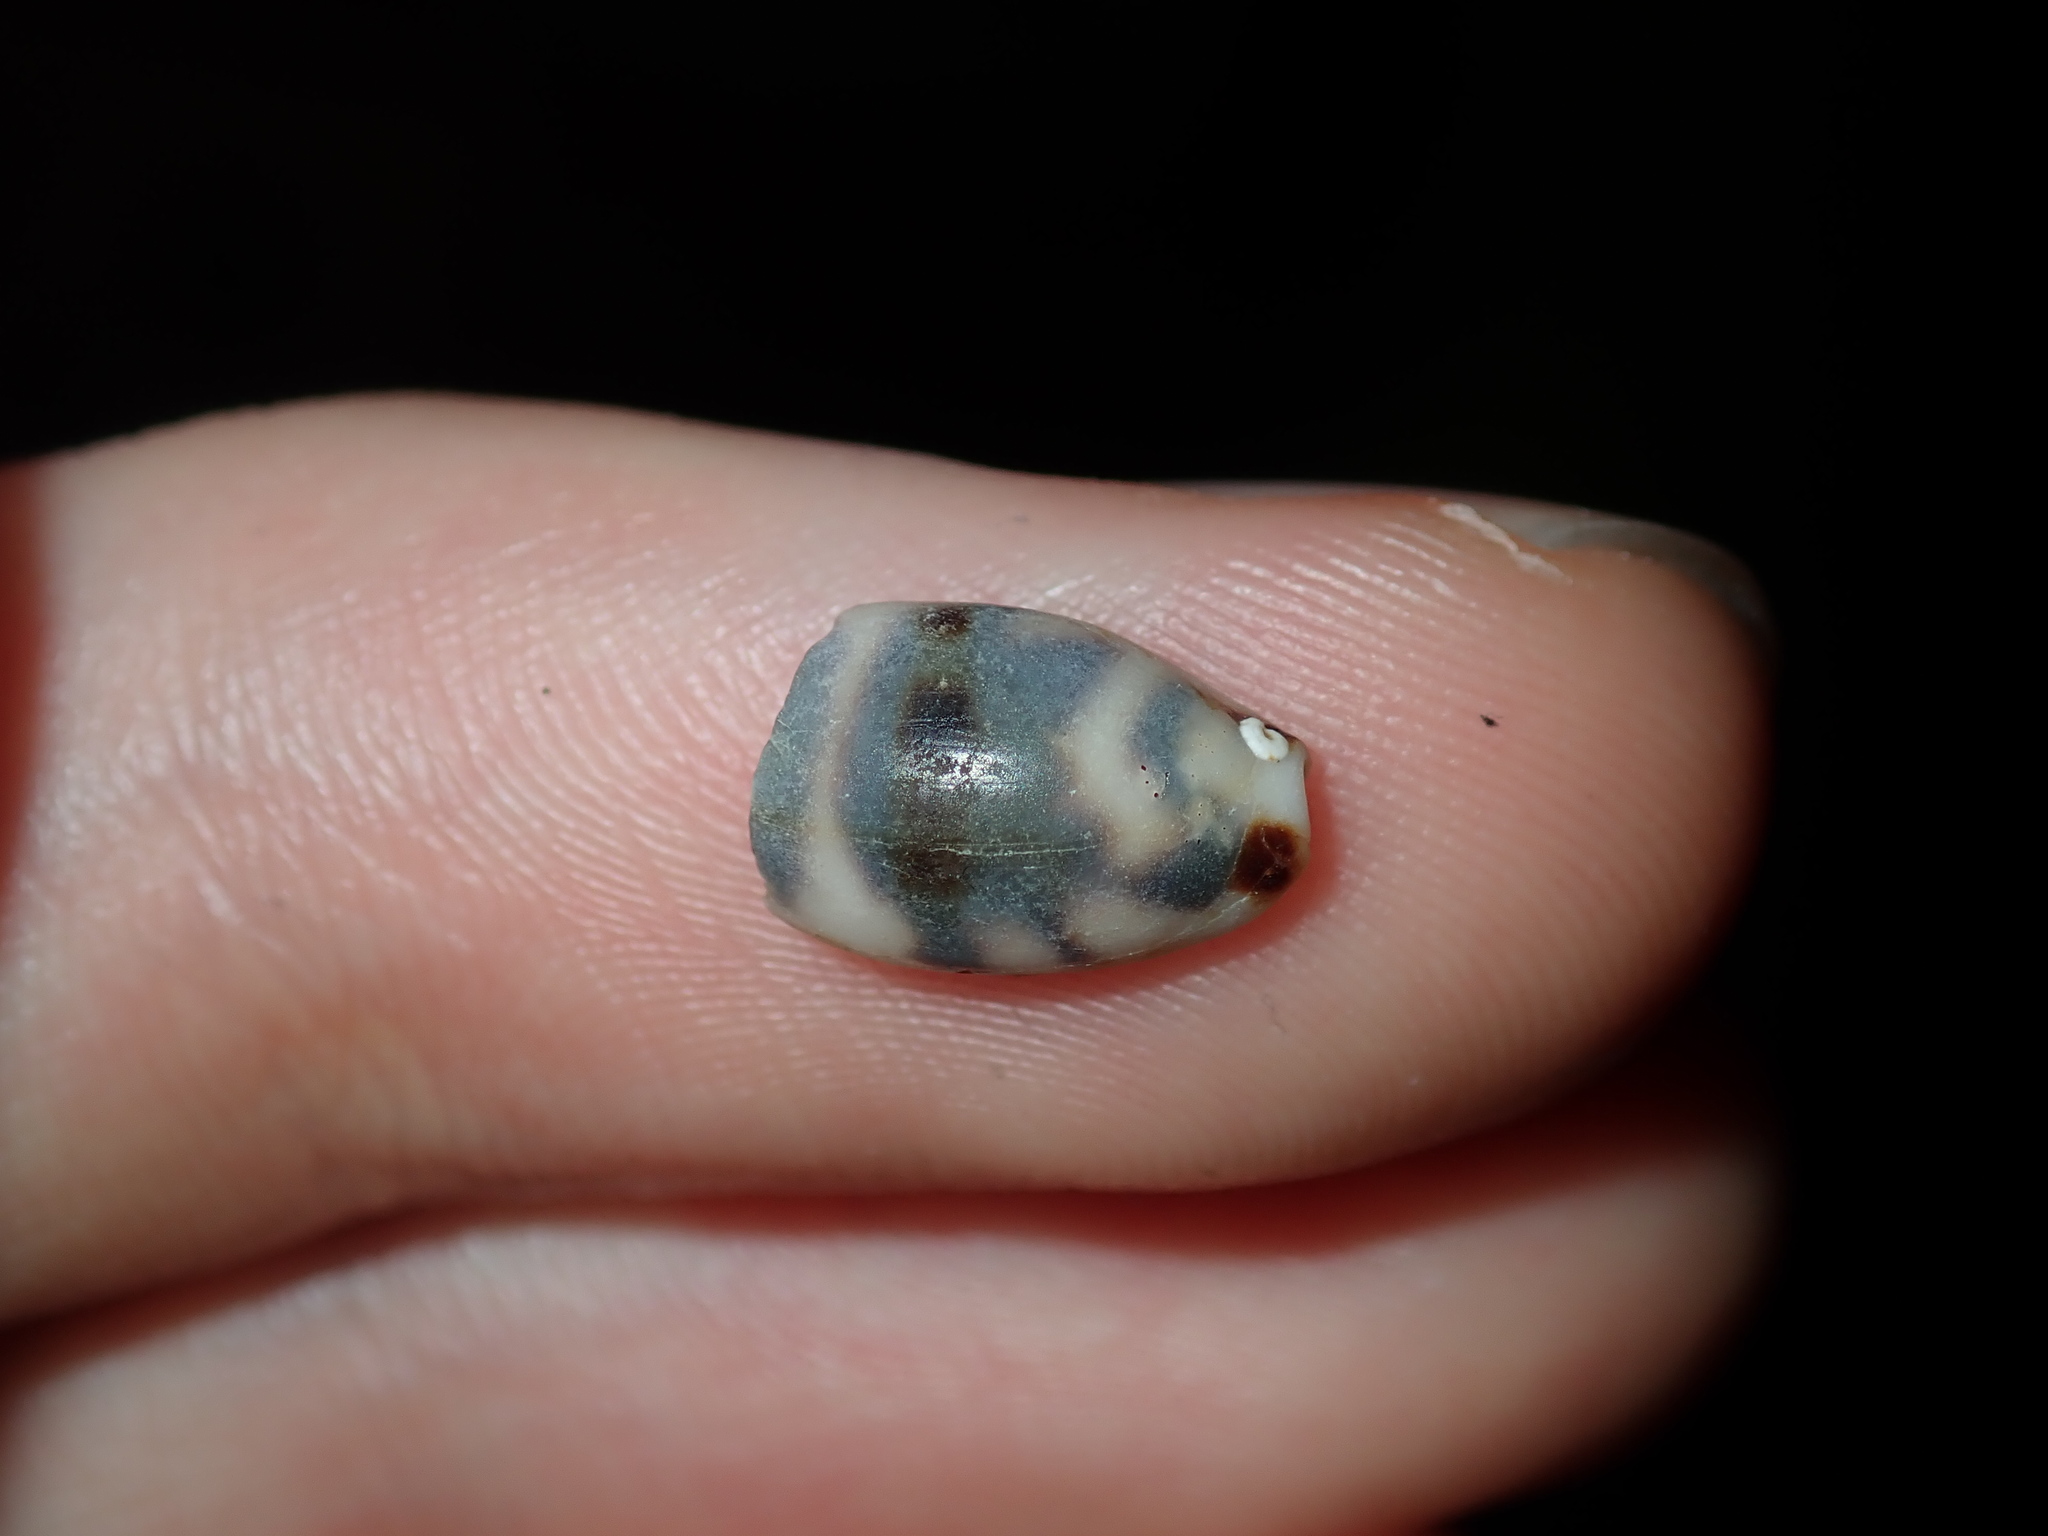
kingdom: Animalia
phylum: Mollusca
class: Gastropoda
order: Littorinimorpha
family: Cypraeidae
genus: Bistolida
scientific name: Bistolida kieneri
